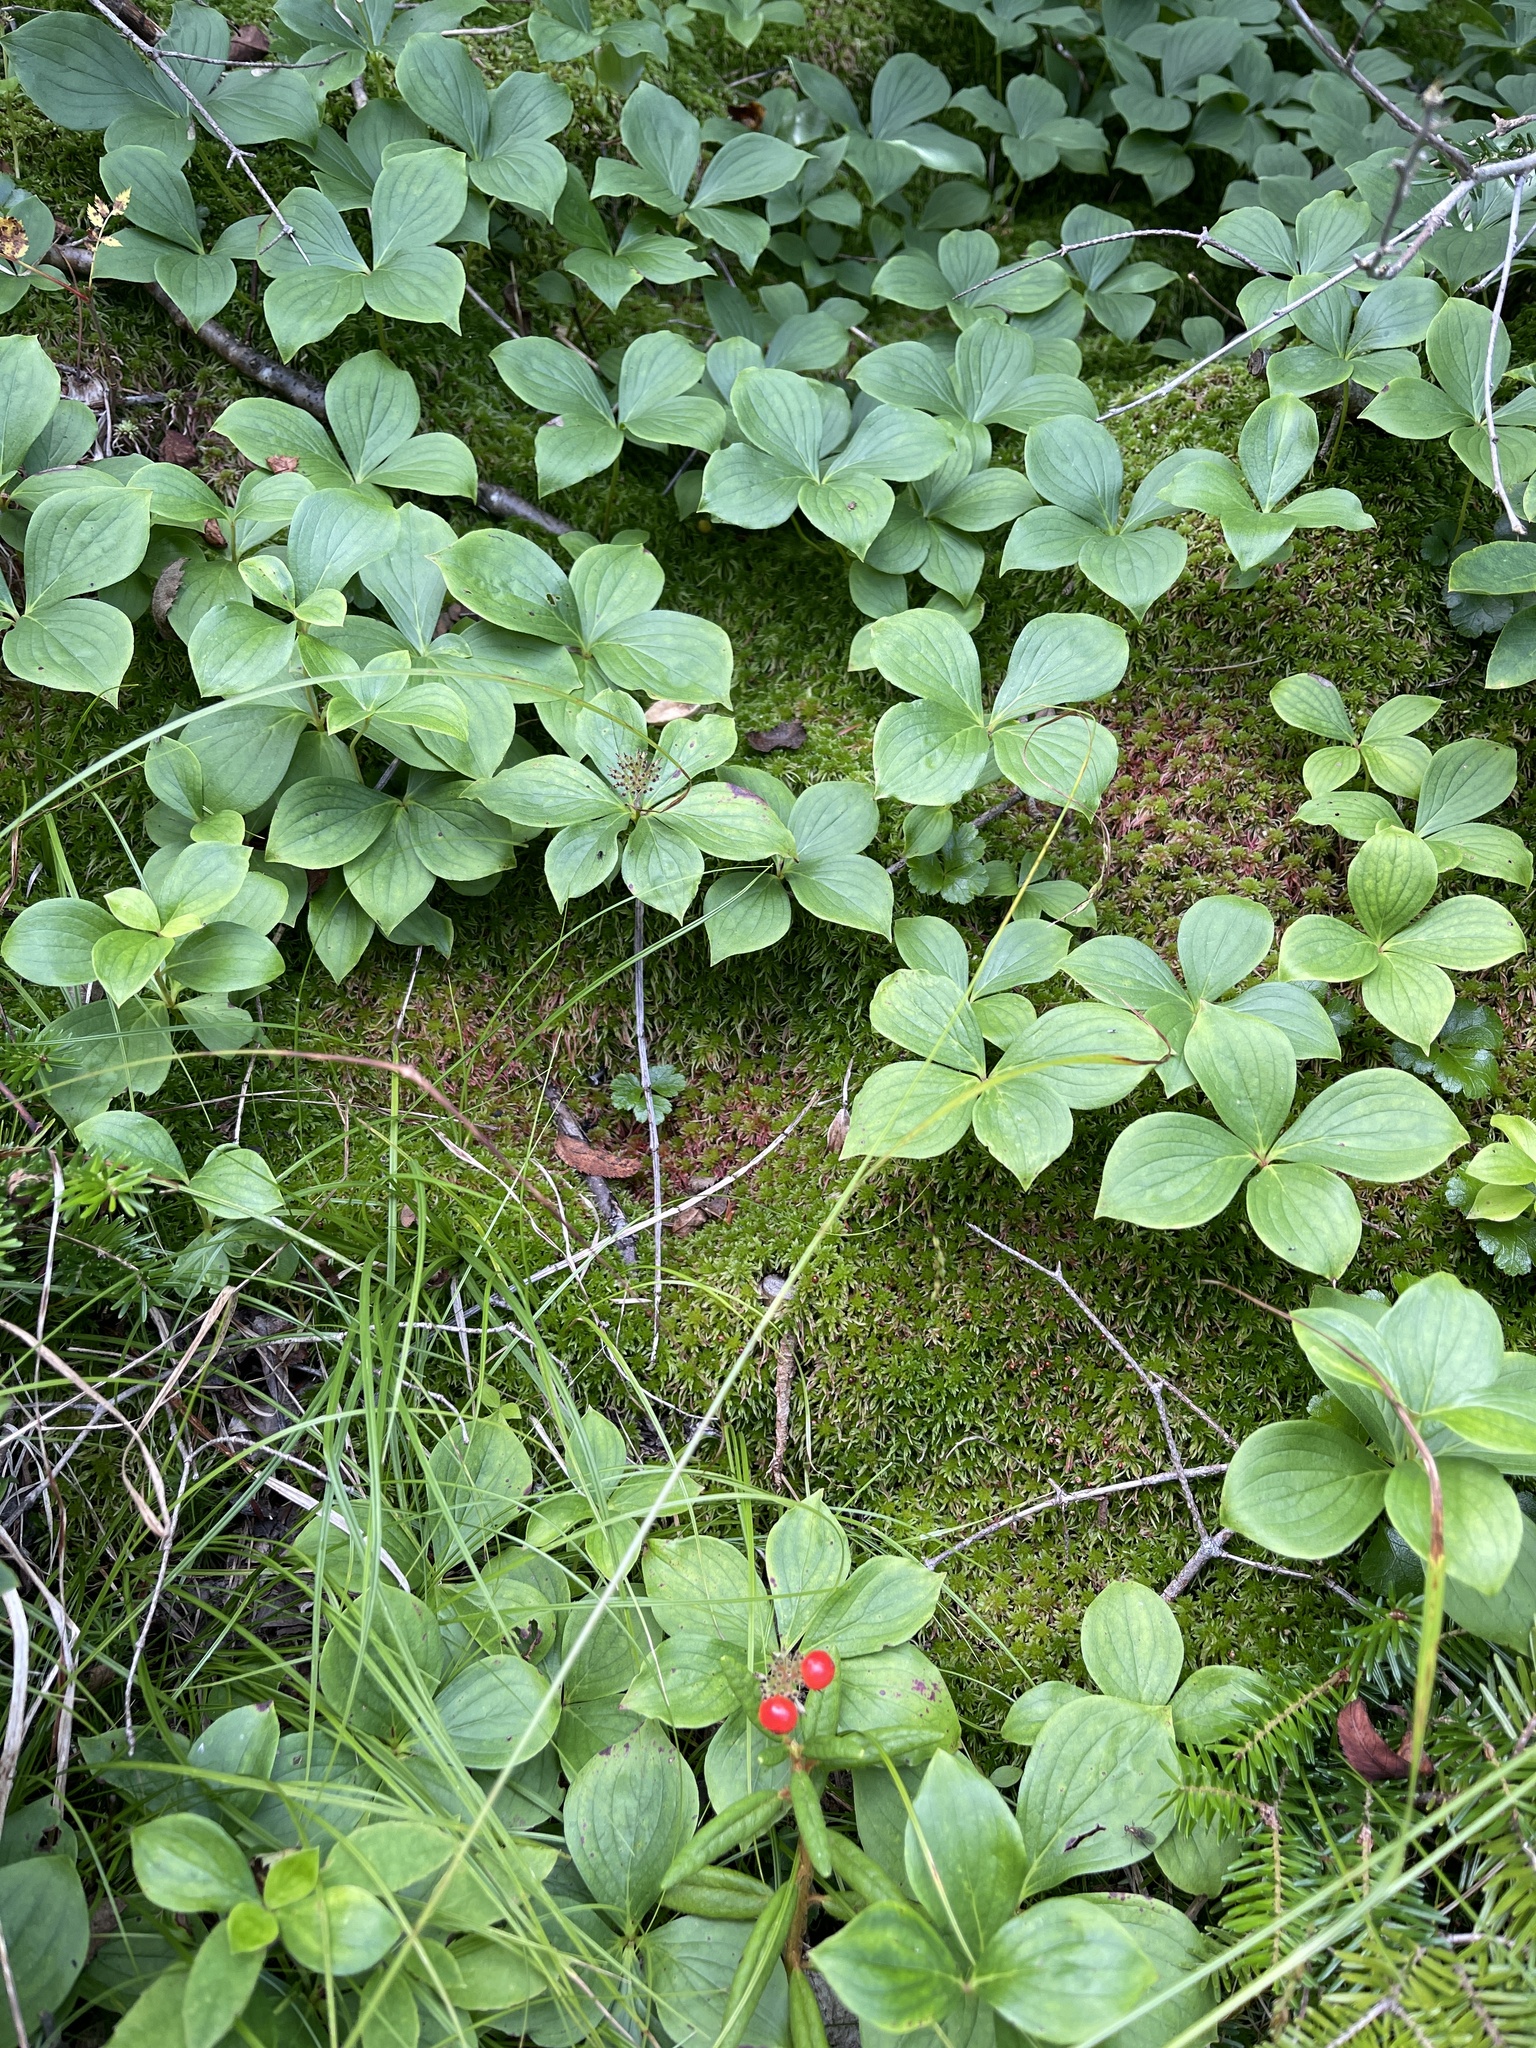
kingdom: Plantae
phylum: Tracheophyta
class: Magnoliopsida
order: Cornales
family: Cornaceae
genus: Cornus
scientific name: Cornus canadensis
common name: Creeping dogwood
